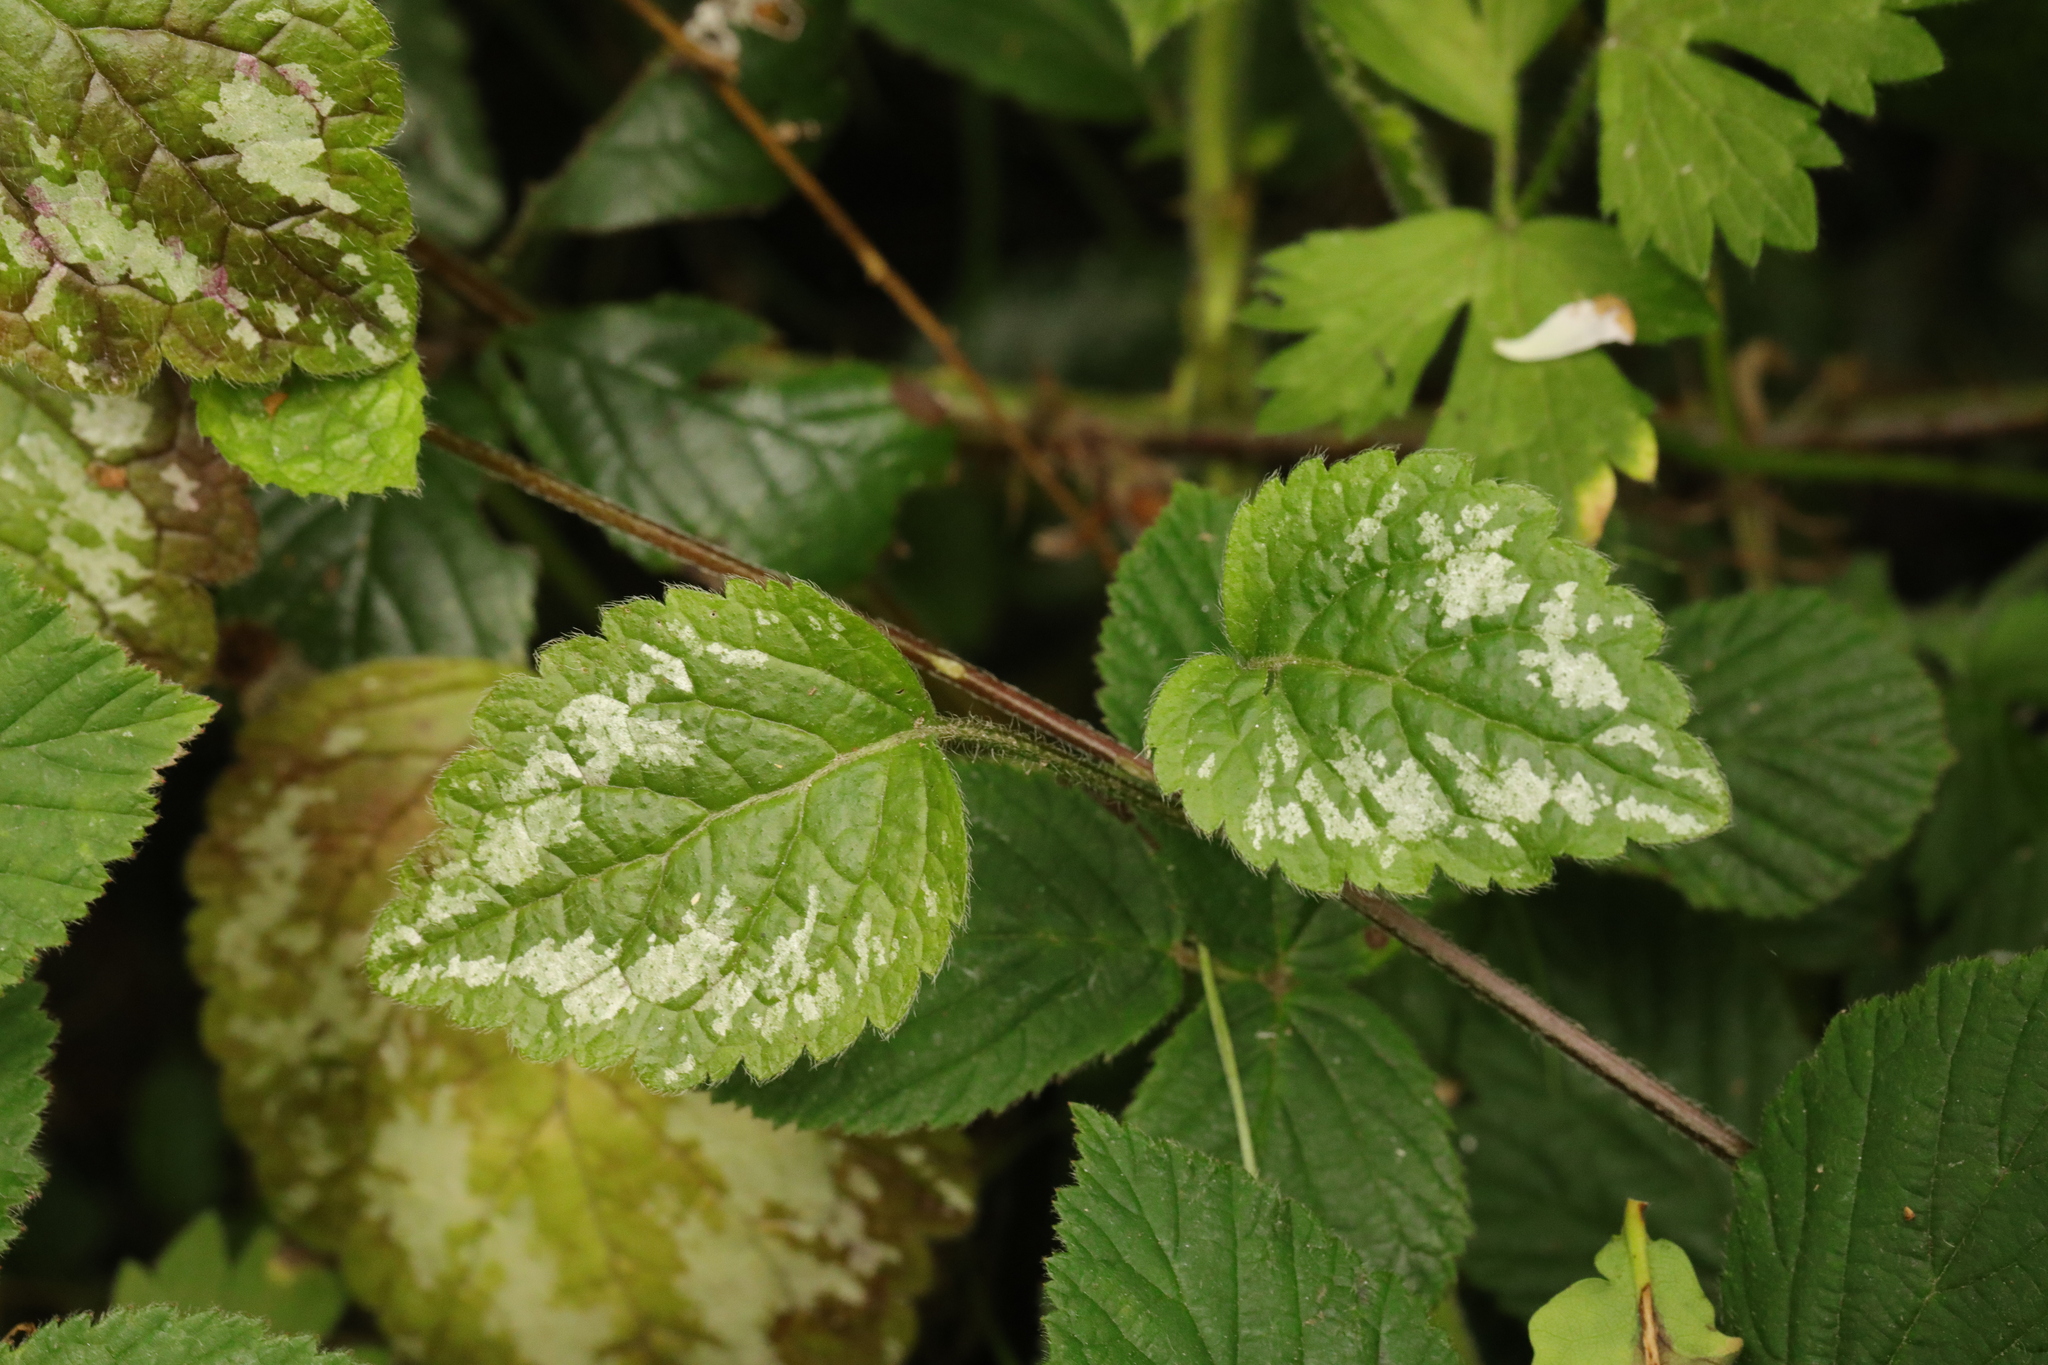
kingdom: Plantae
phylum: Tracheophyta
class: Magnoliopsida
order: Lamiales
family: Lamiaceae
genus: Lamium
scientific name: Lamium galeobdolon
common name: Yellow archangel
